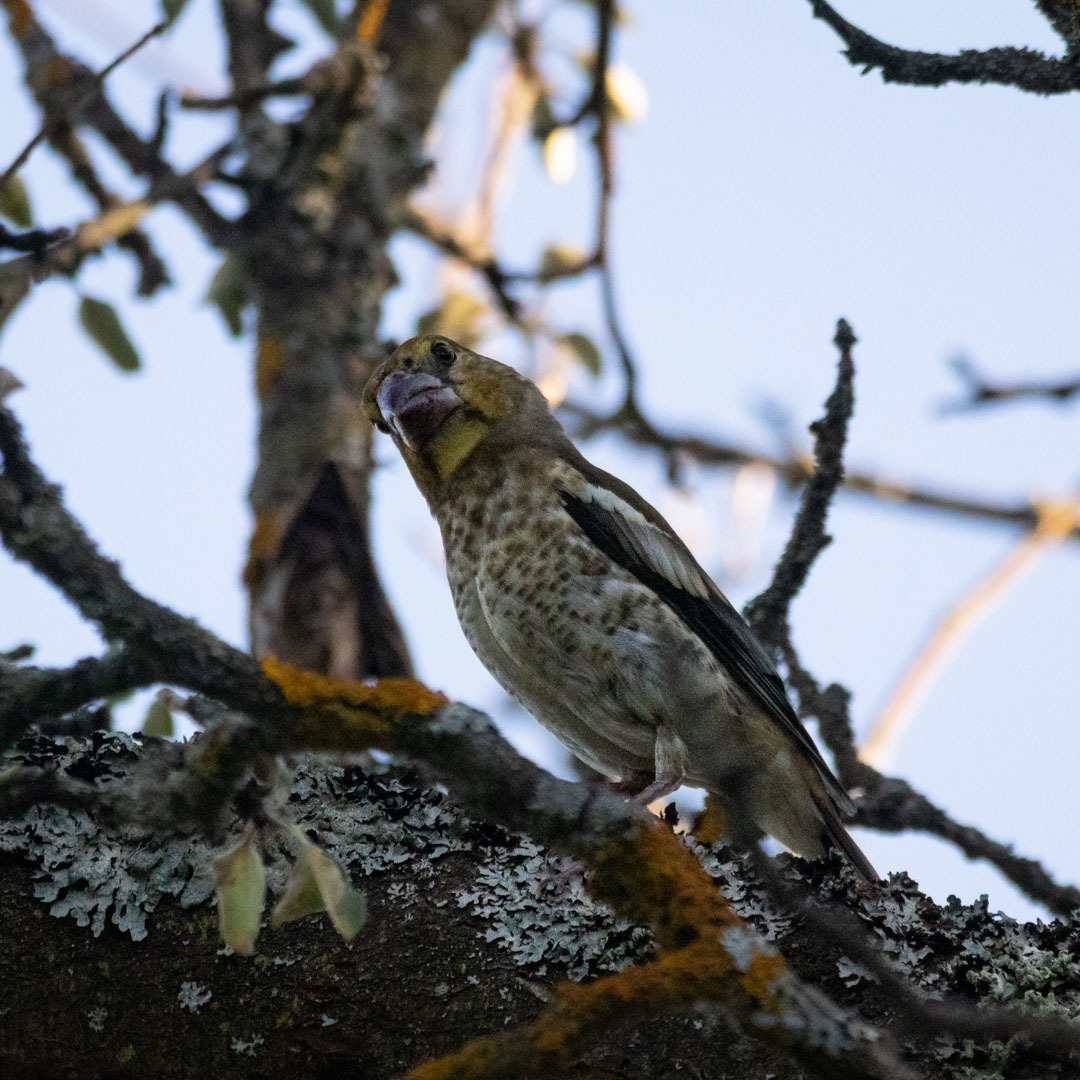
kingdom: Animalia
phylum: Chordata
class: Aves
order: Passeriformes
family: Fringillidae
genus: Coccothraustes
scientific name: Coccothraustes coccothraustes
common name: Hawfinch
